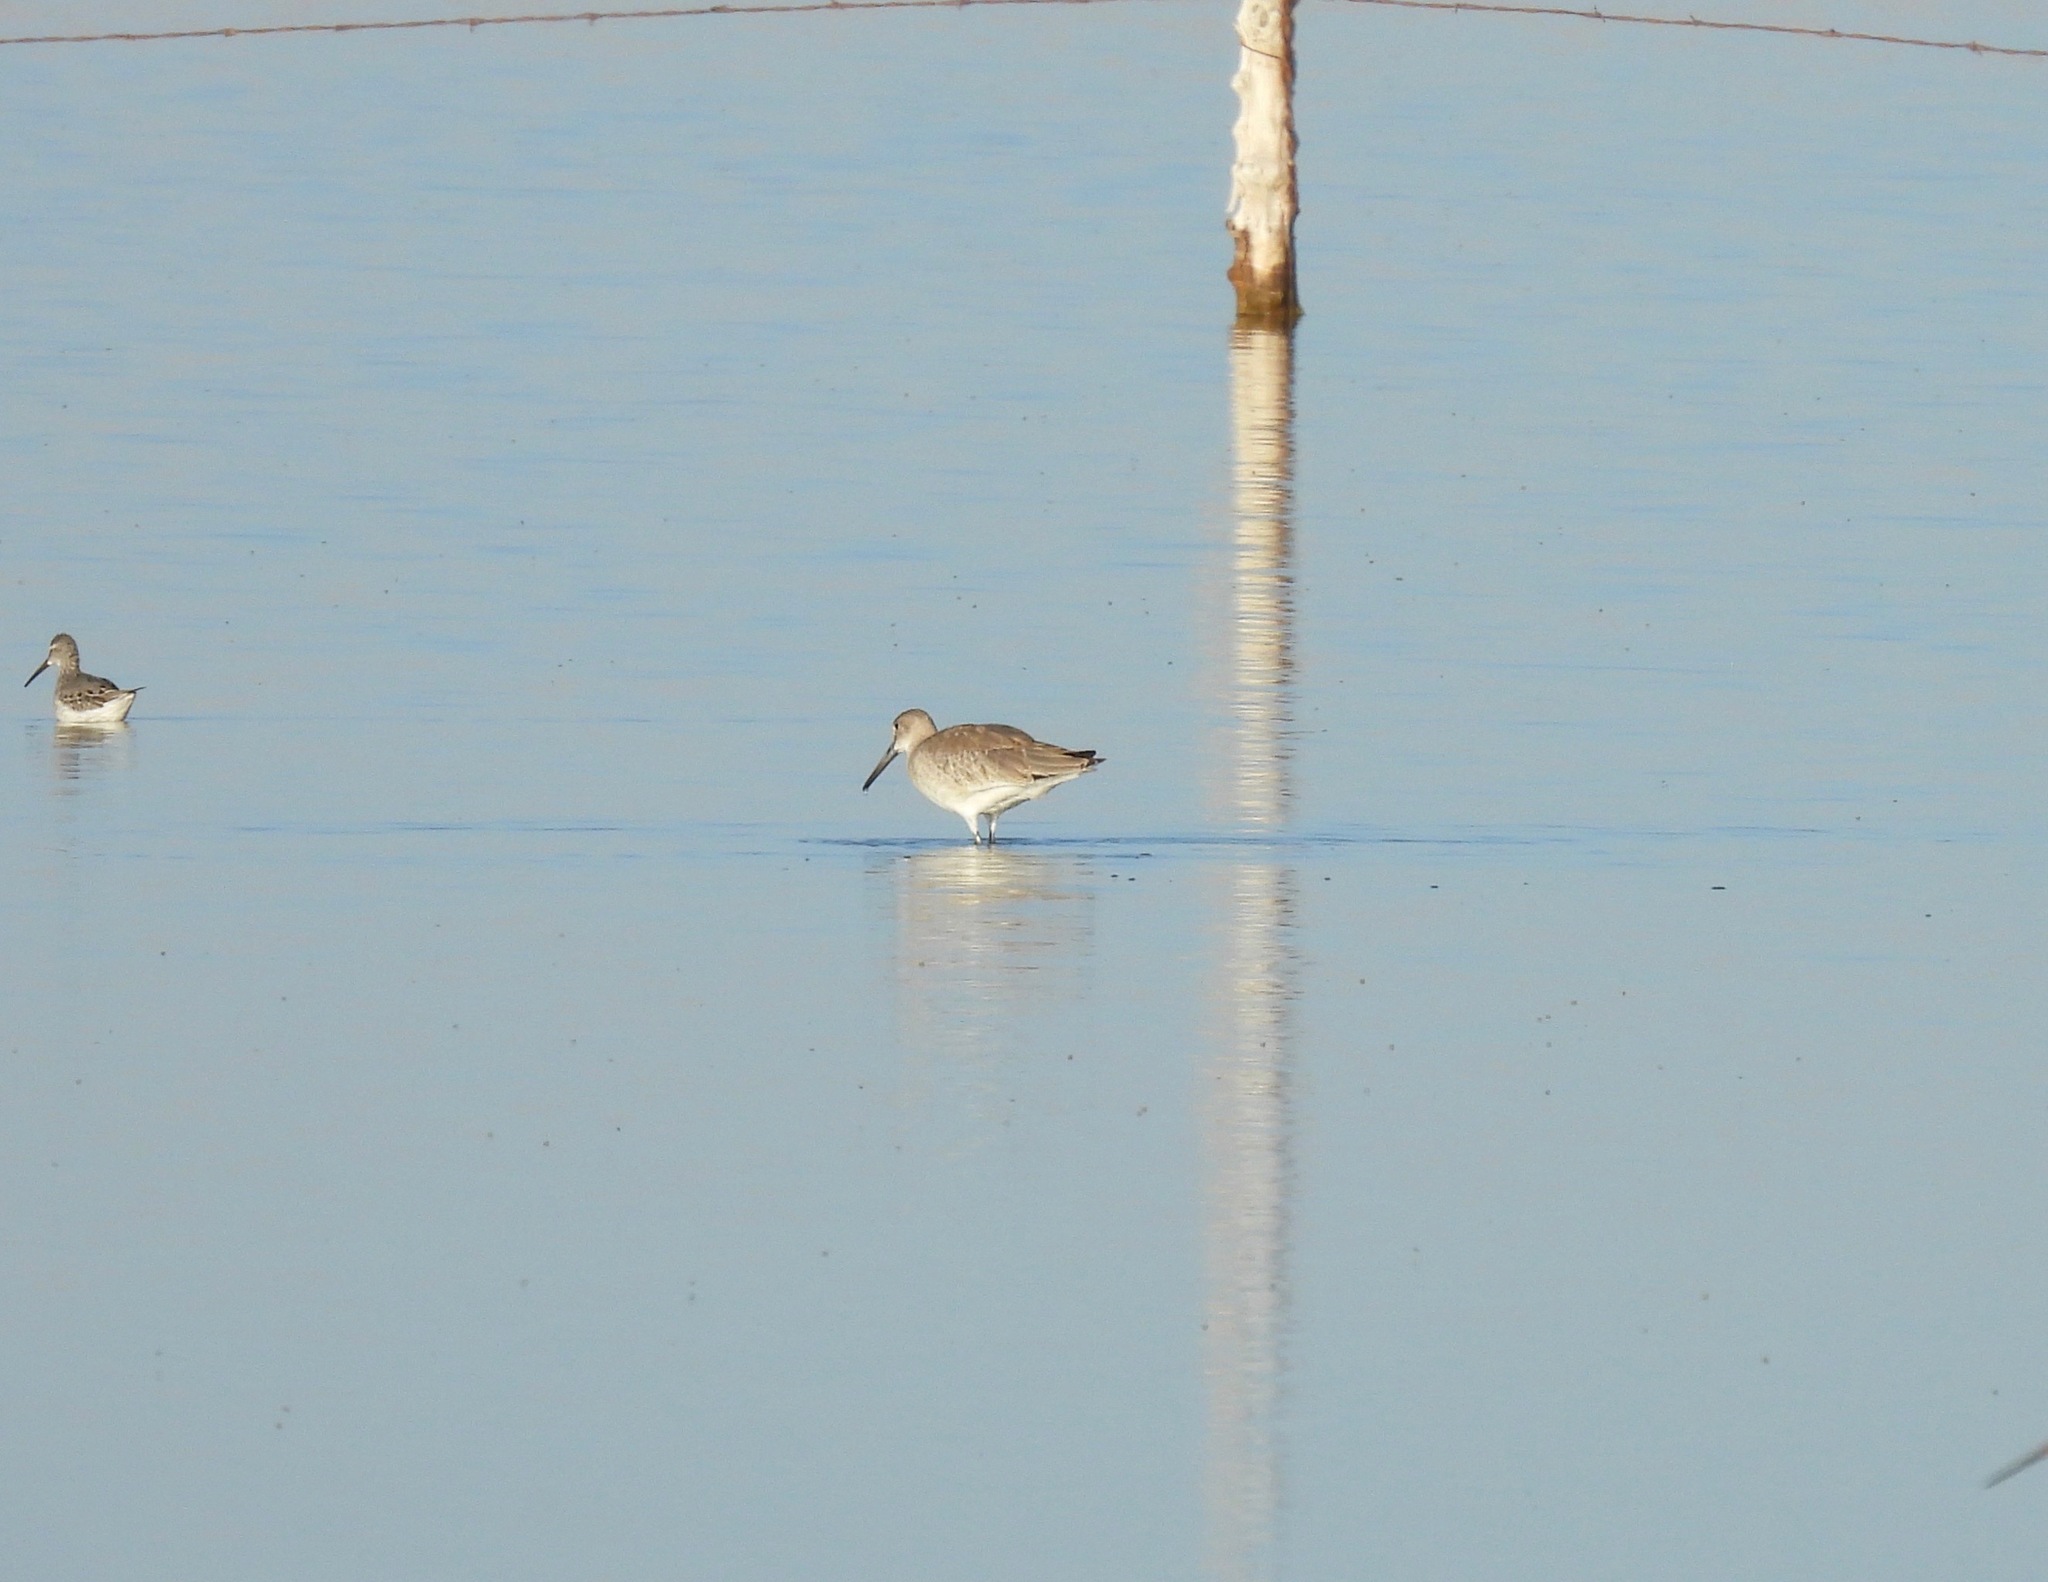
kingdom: Animalia
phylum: Chordata
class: Aves
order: Charadriiformes
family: Scolopacidae
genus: Tringa
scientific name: Tringa semipalmata
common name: Willet
